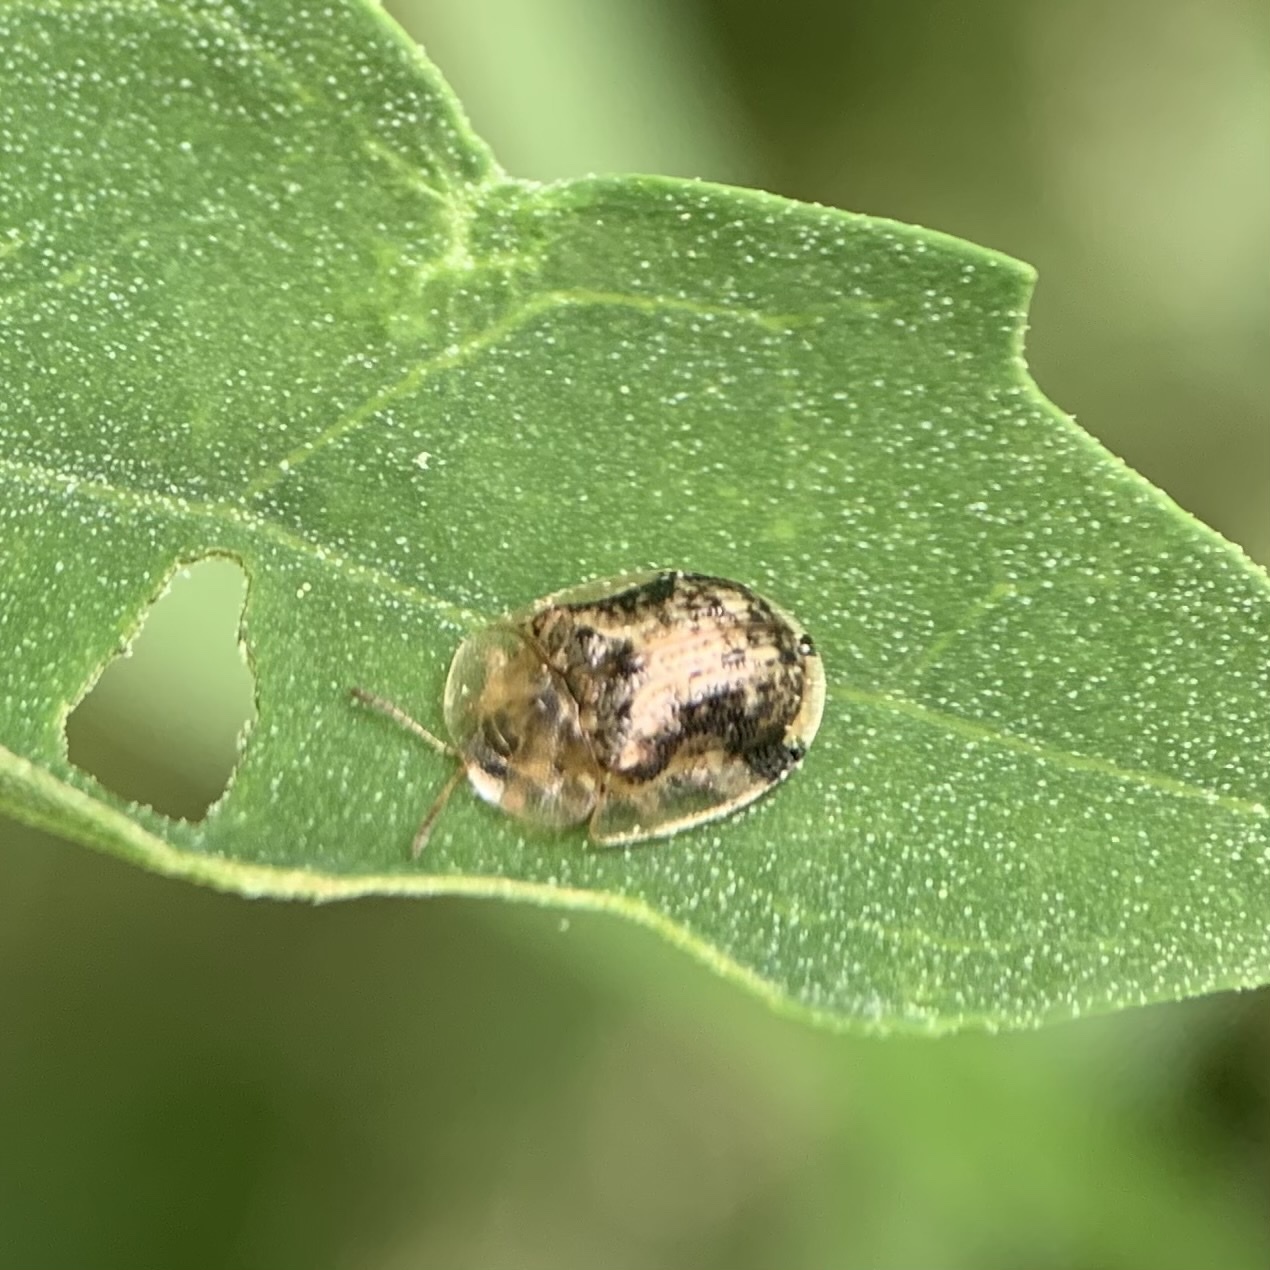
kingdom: Animalia
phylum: Arthropoda
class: Insecta
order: Coleoptera
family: Chrysomelidae
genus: Cassida
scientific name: Cassida piperata
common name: Small tortoise beetle
